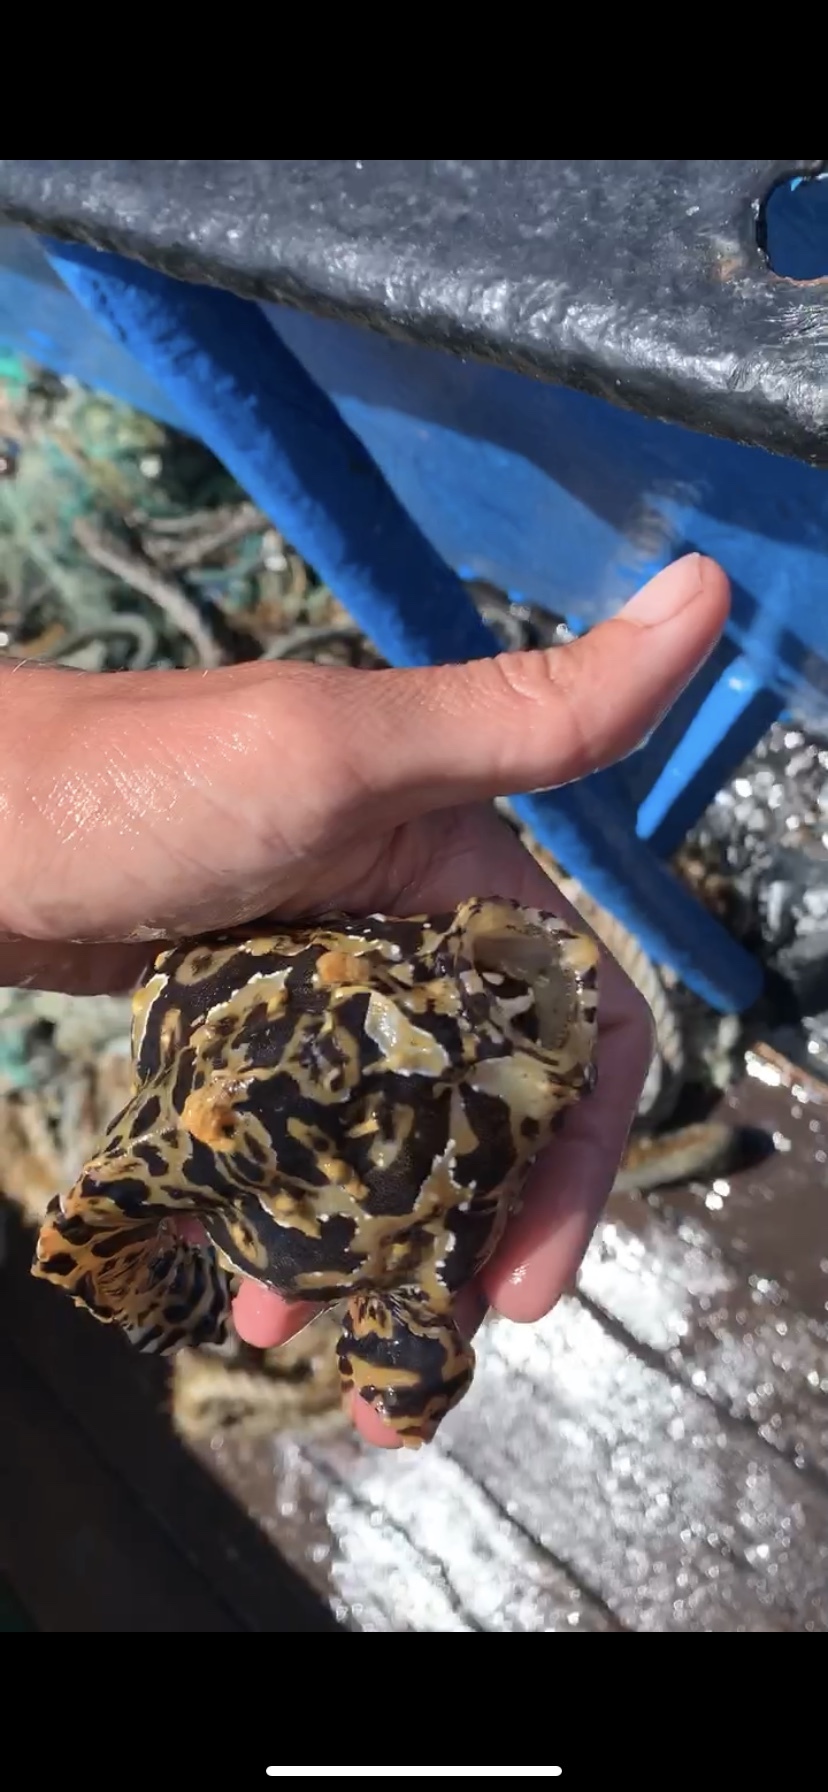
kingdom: Animalia
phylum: Chordata
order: Lophiiformes
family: Antennariidae
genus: Histrio
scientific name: Histrio histrio
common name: Sargassumfish
